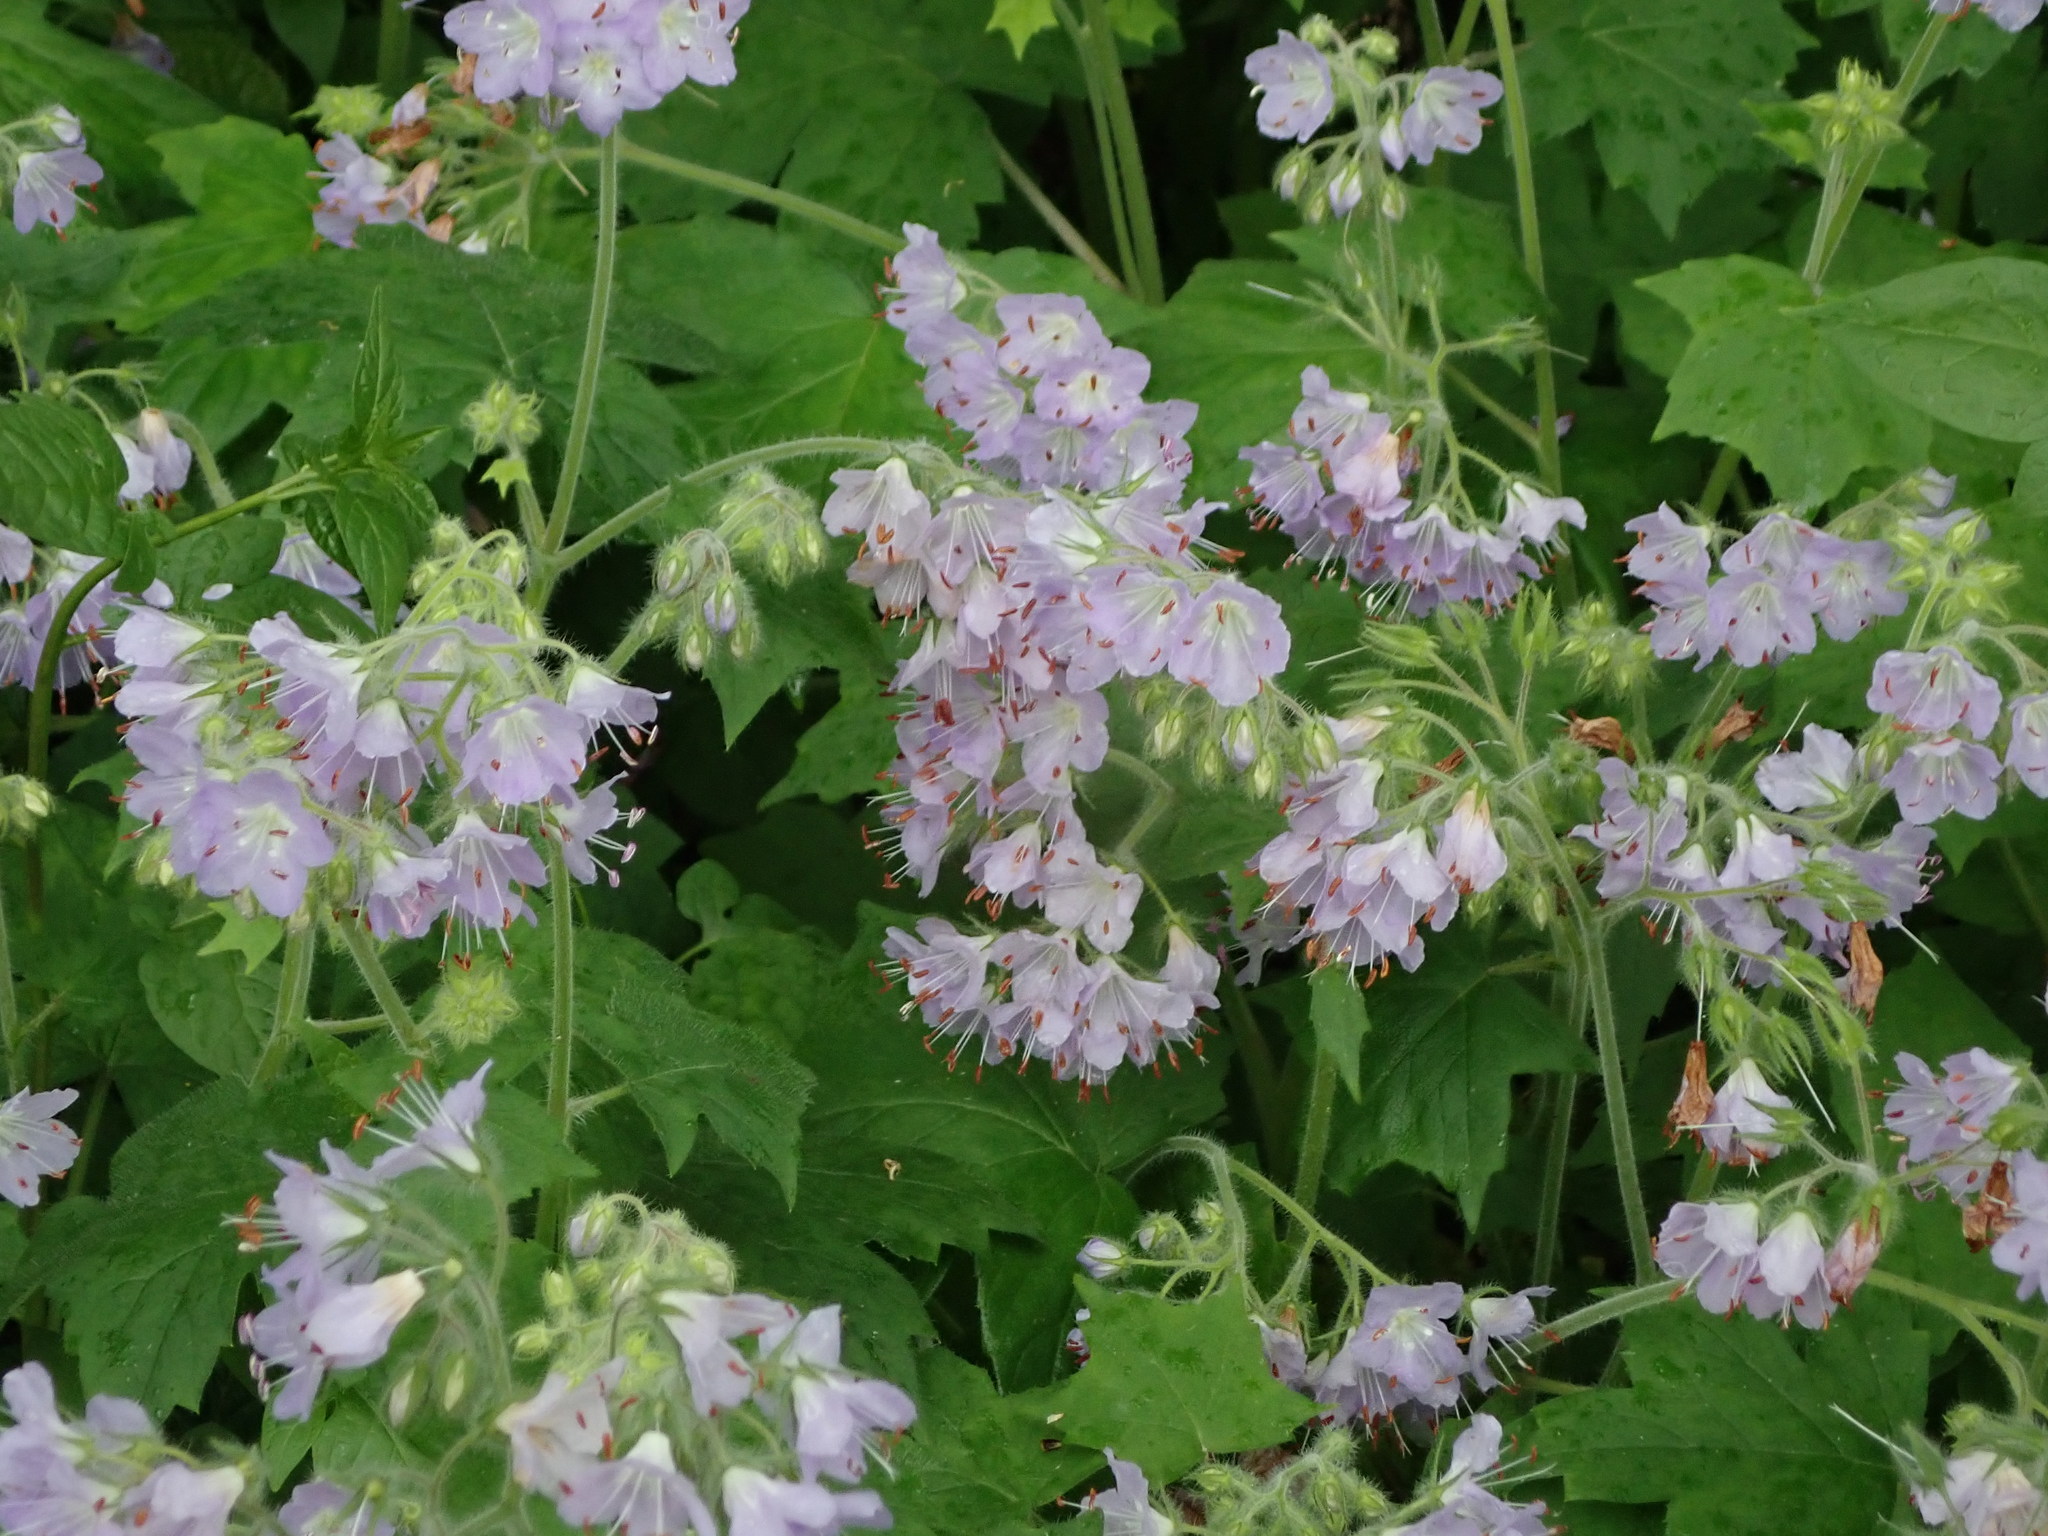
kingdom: Plantae
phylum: Tracheophyta
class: Magnoliopsida
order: Boraginales
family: Hydrophyllaceae
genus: Hydrophyllum
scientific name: Hydrophyllum appendiculatum
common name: Appendaged waterleaf
